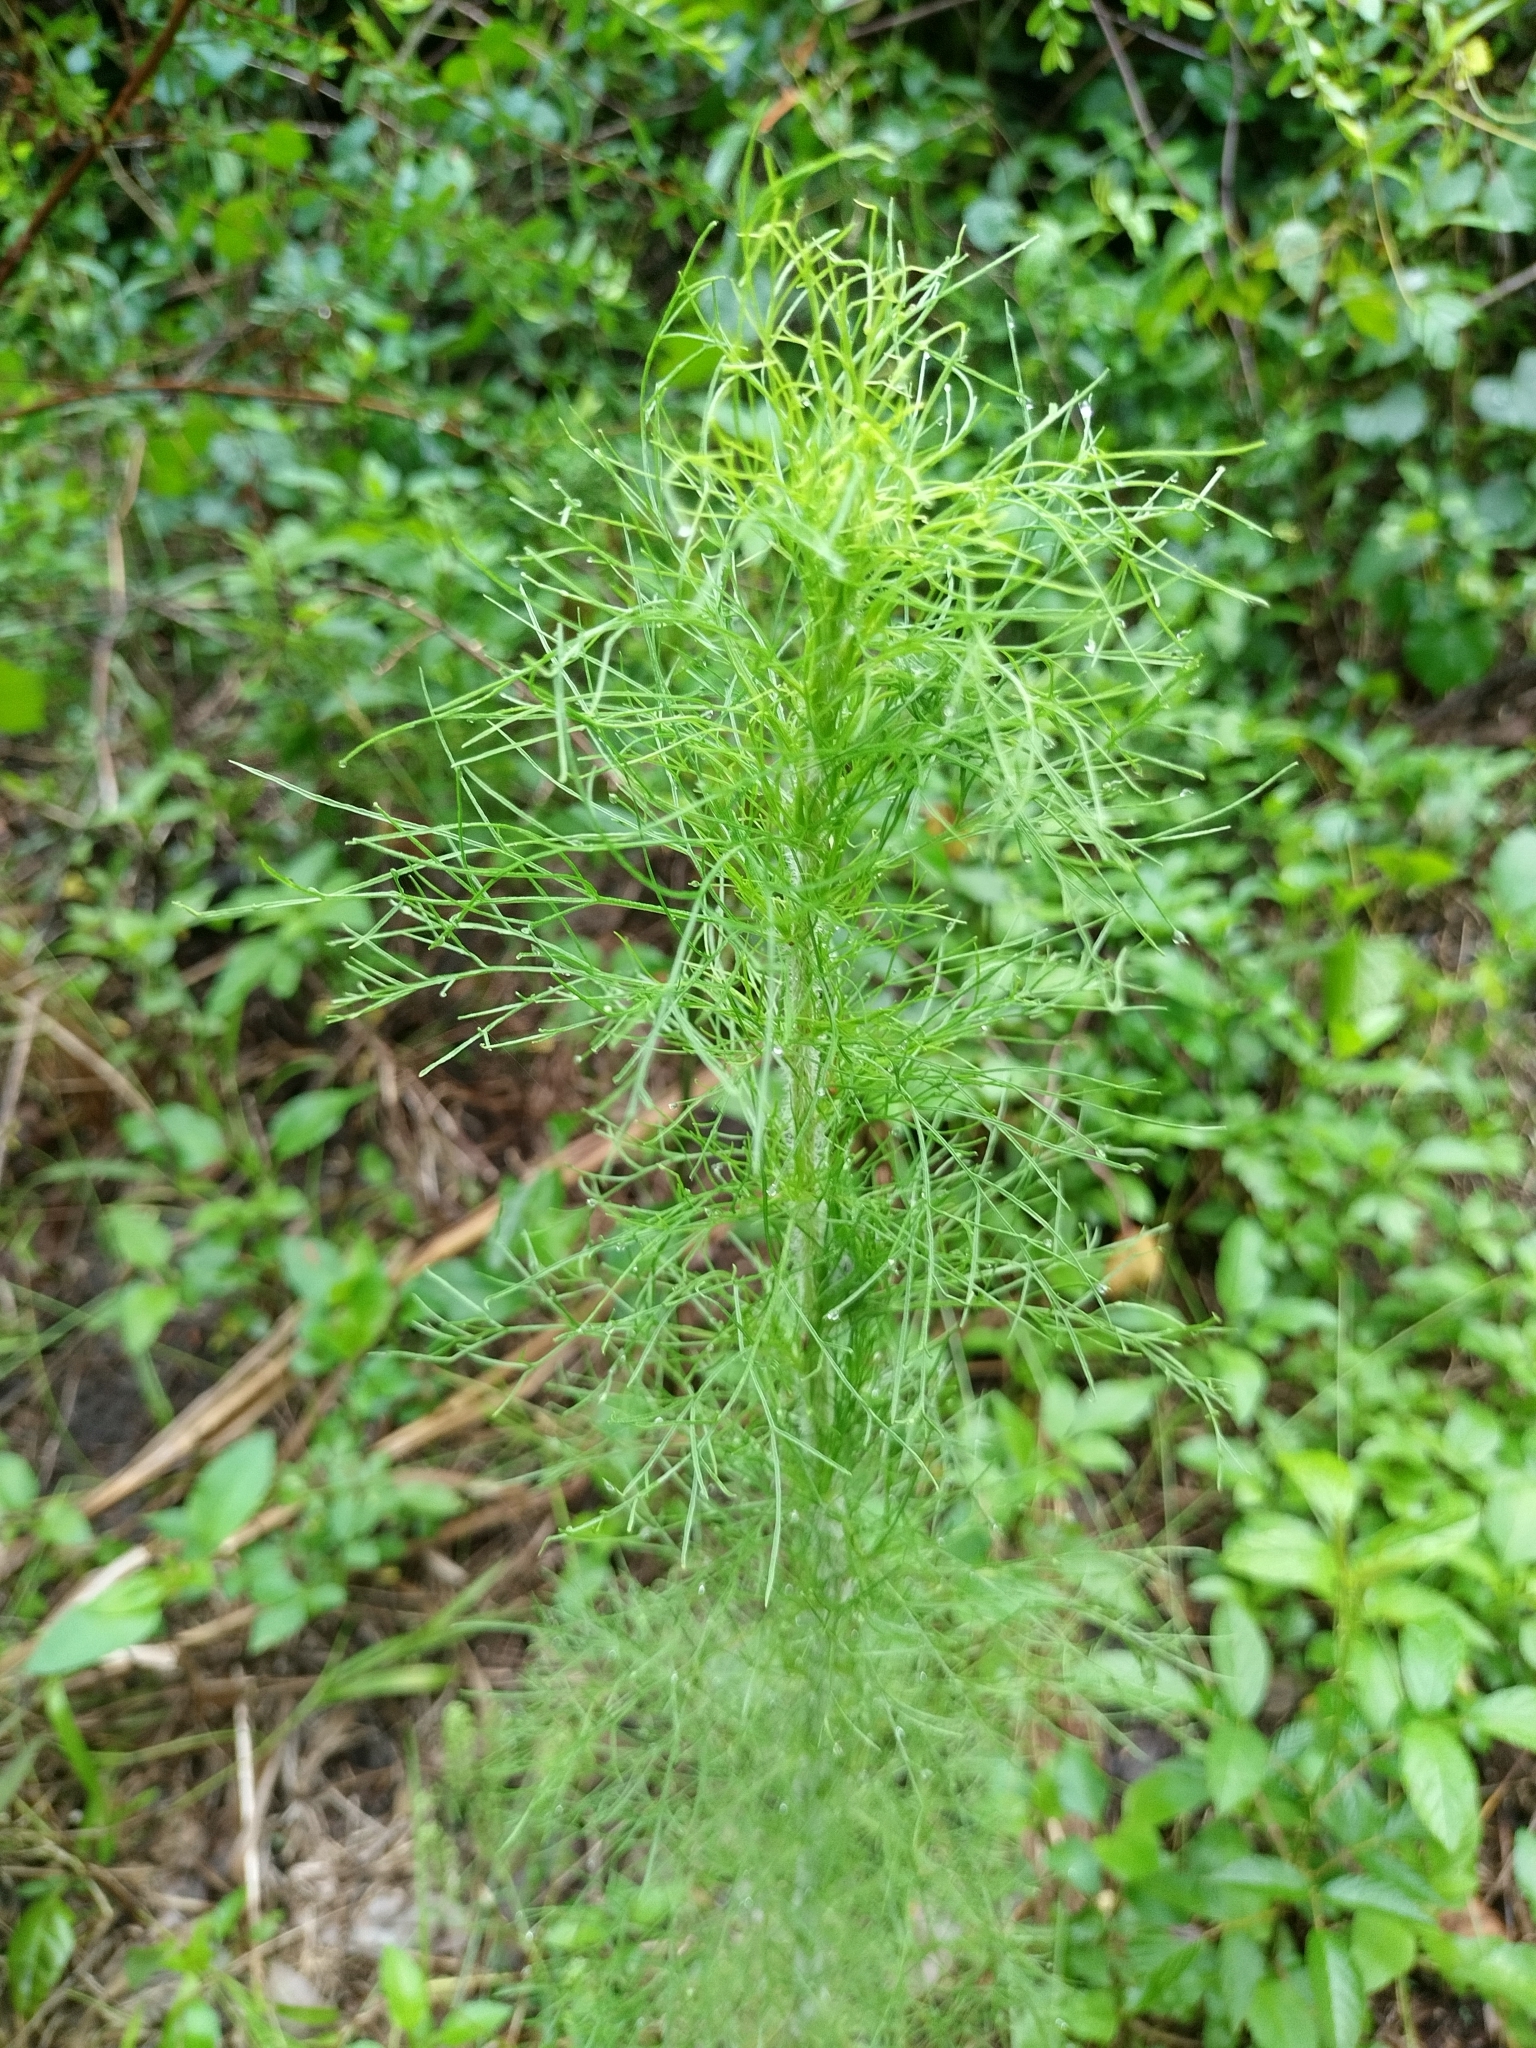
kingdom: Plantae
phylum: Tracheophyta
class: Magnoliopsida
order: Asterales
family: Asteraceae
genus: Eupatorium
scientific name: Eupatorium capillifolium
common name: Dog-fennel
